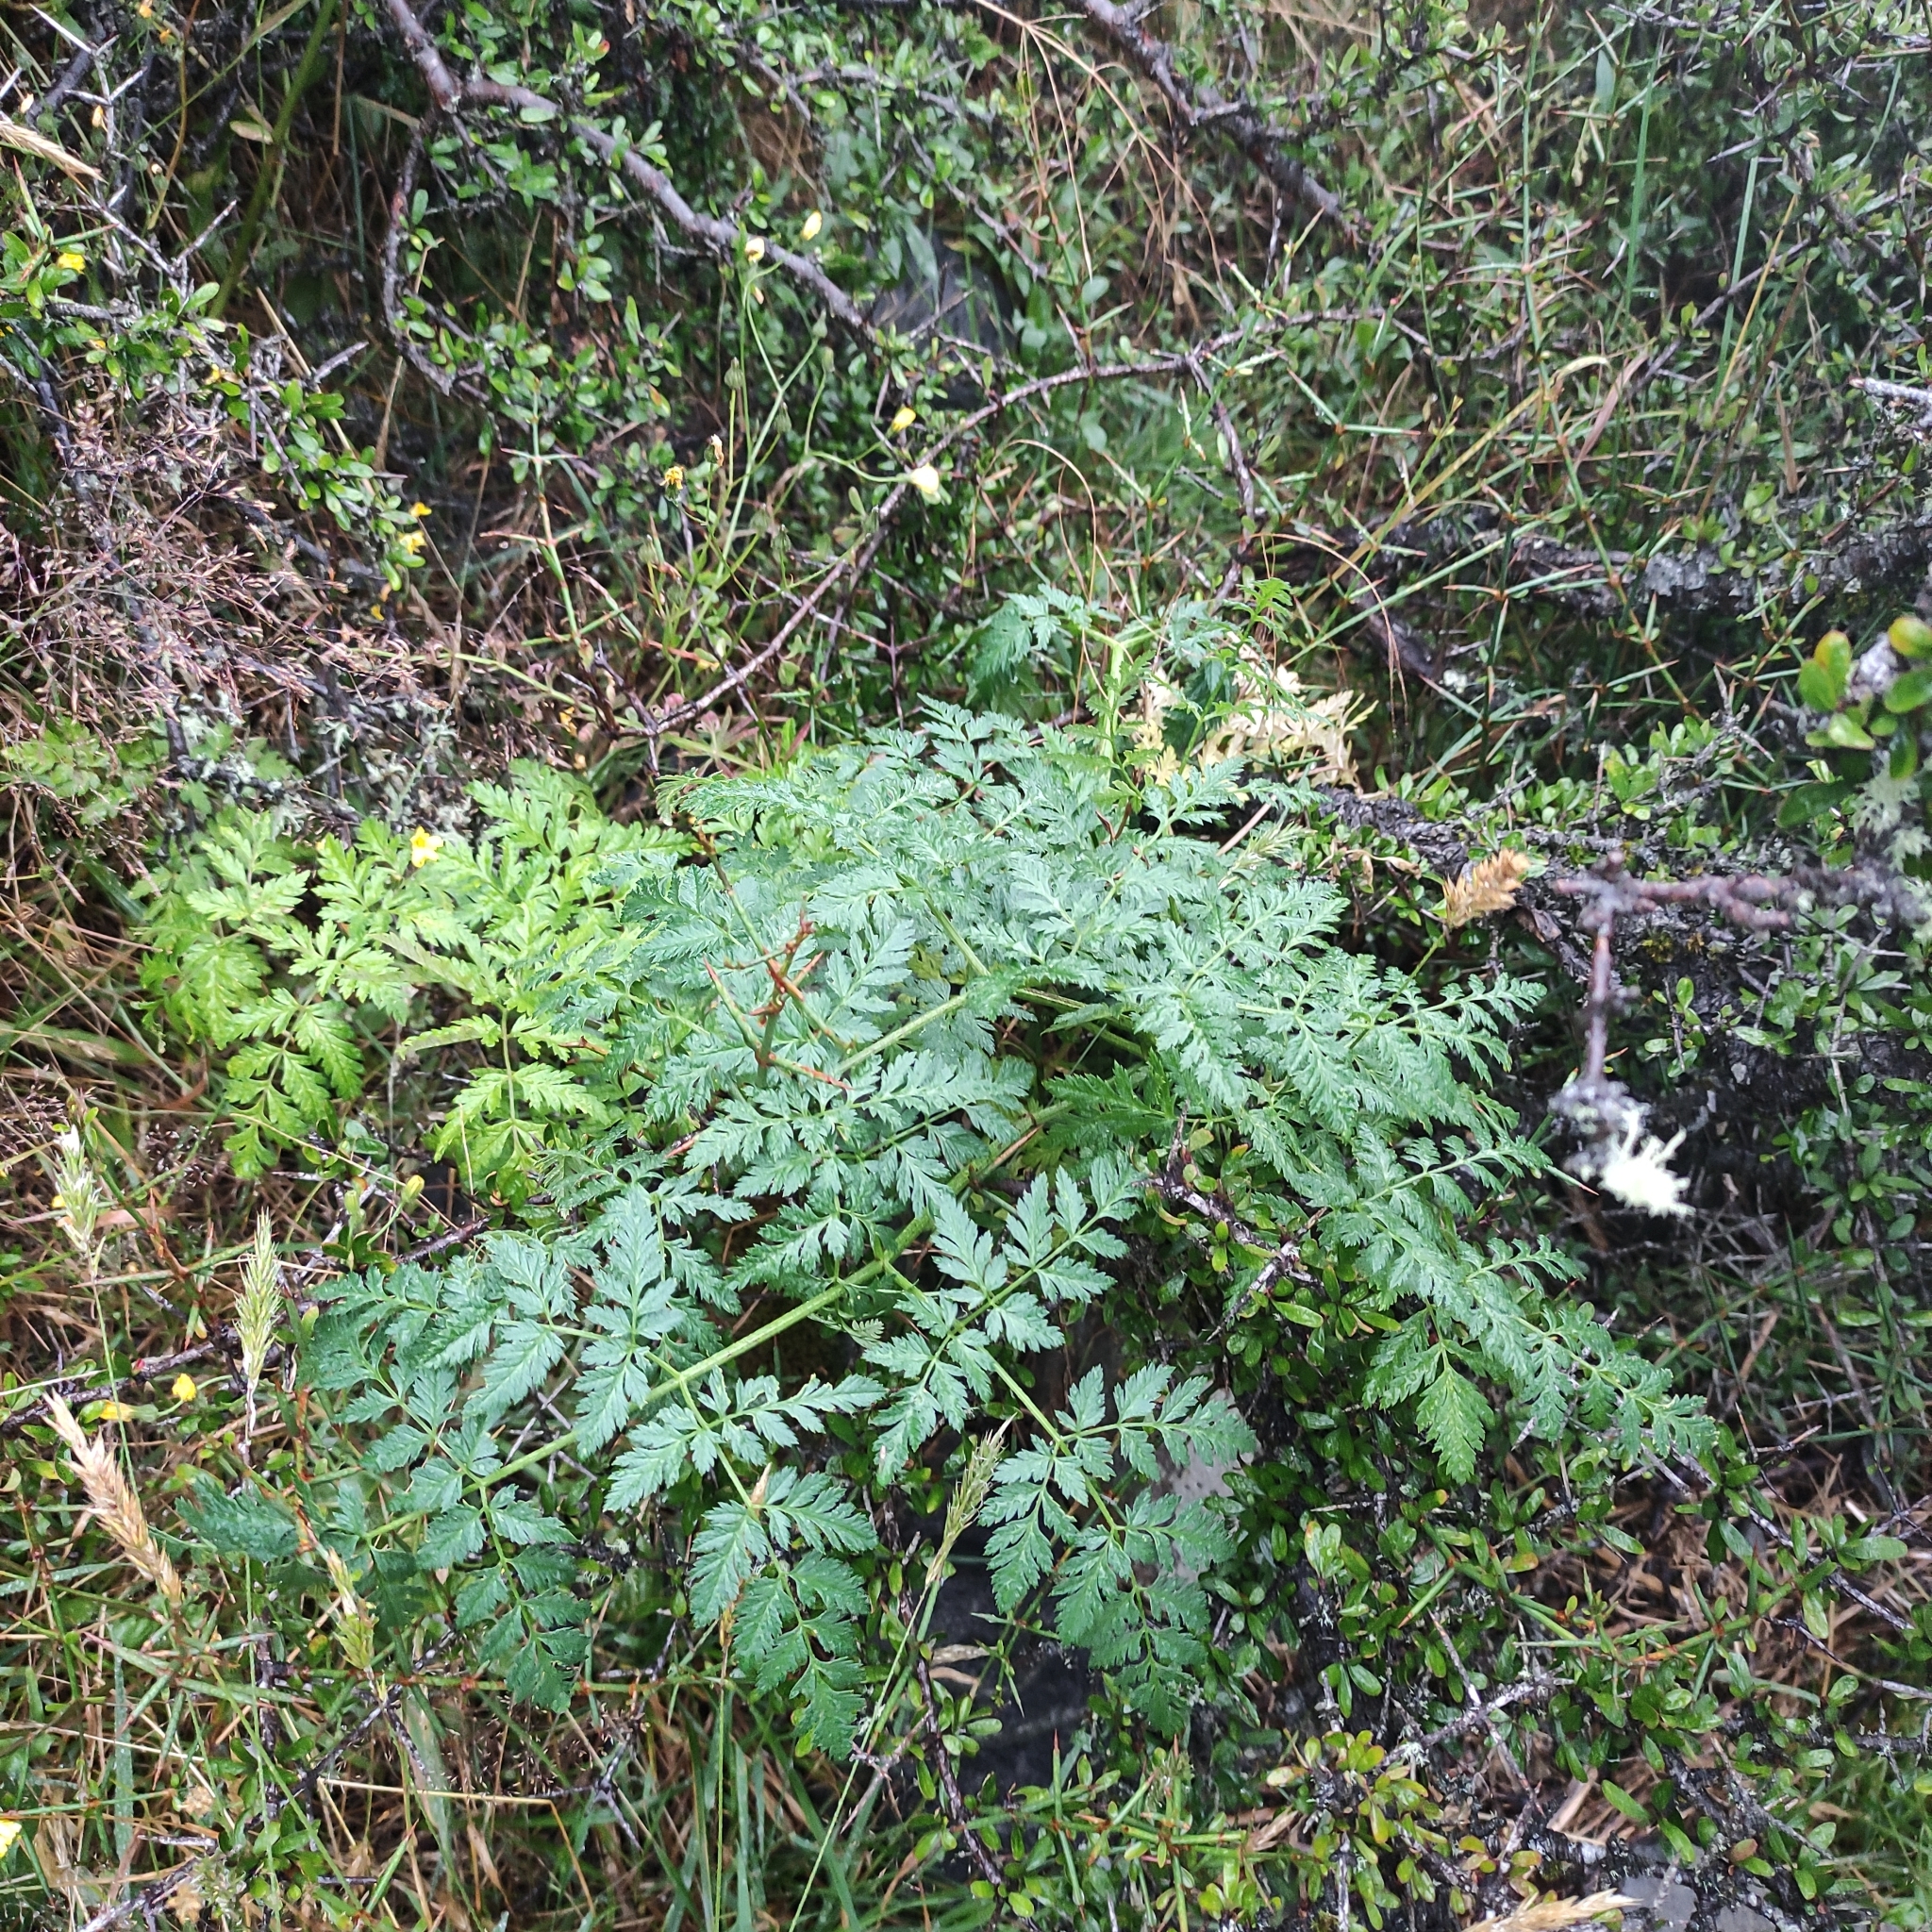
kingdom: Plantae
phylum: Tracheophyta
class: Magnoliopsida
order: Apiales
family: Apiaceae
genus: Conium
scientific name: Conium maculatum
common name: Hemlock
